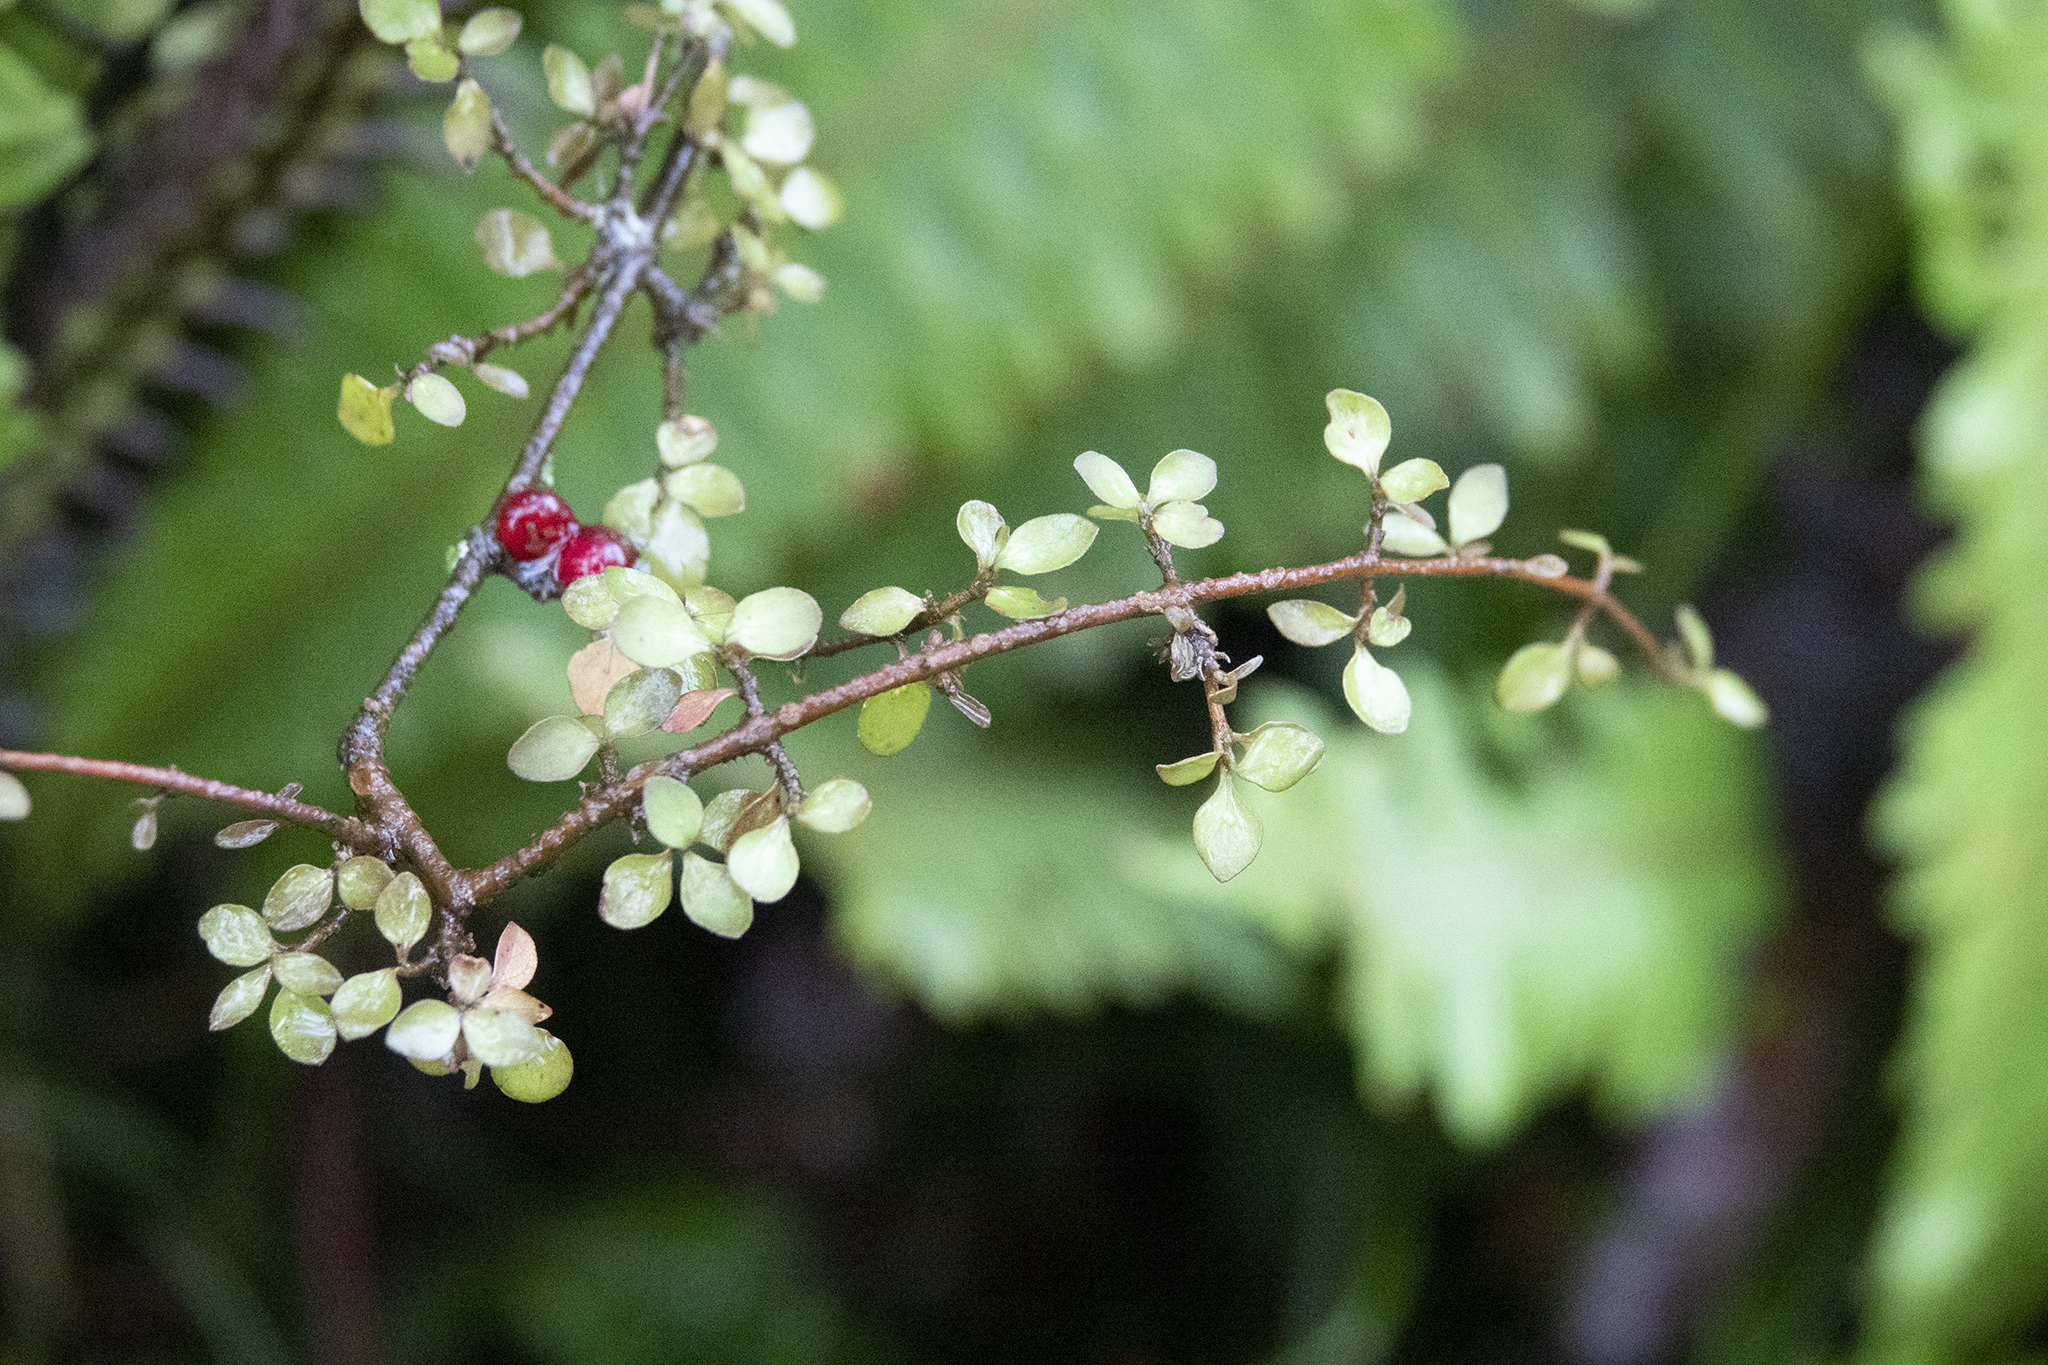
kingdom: Plantae
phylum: Tracheophyta
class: Magnoliopsida
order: Gentianales
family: Rubiaceae
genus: Coprosma
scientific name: Coprosma rhamnoides
